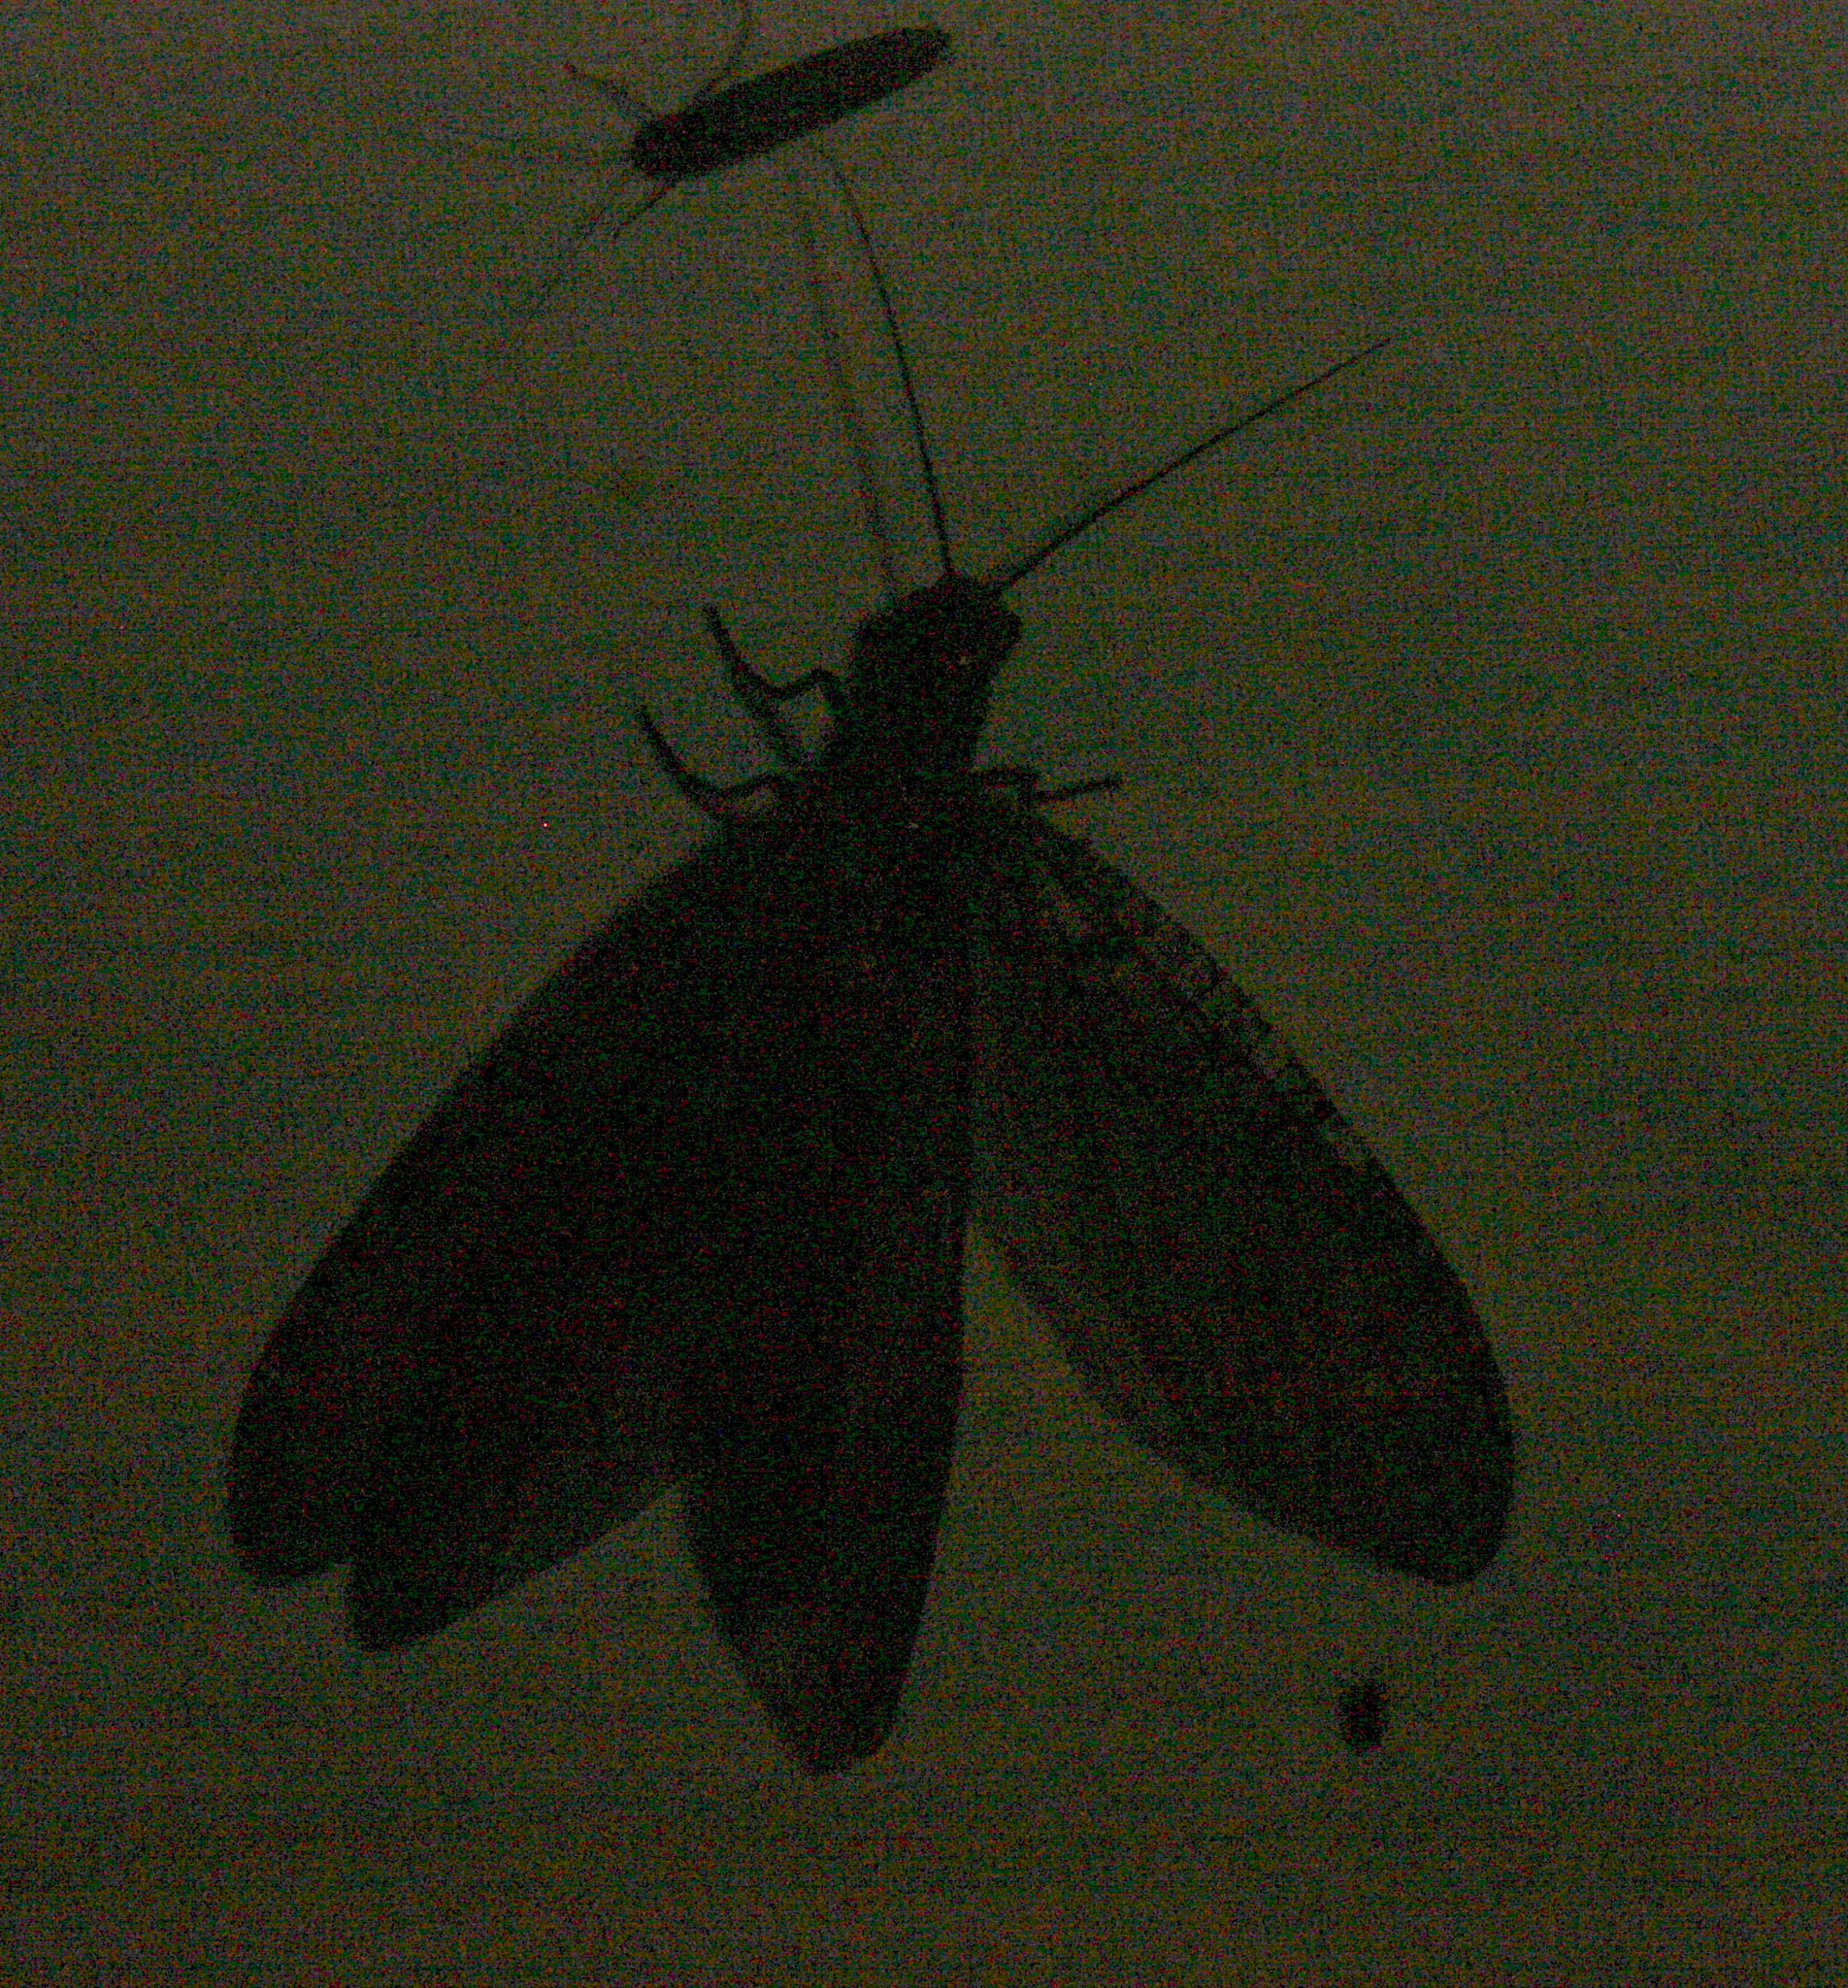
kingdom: Animalia
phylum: Arthropoda
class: Insecta
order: Megaloptera
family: Corydalidae
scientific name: Corydalidae
